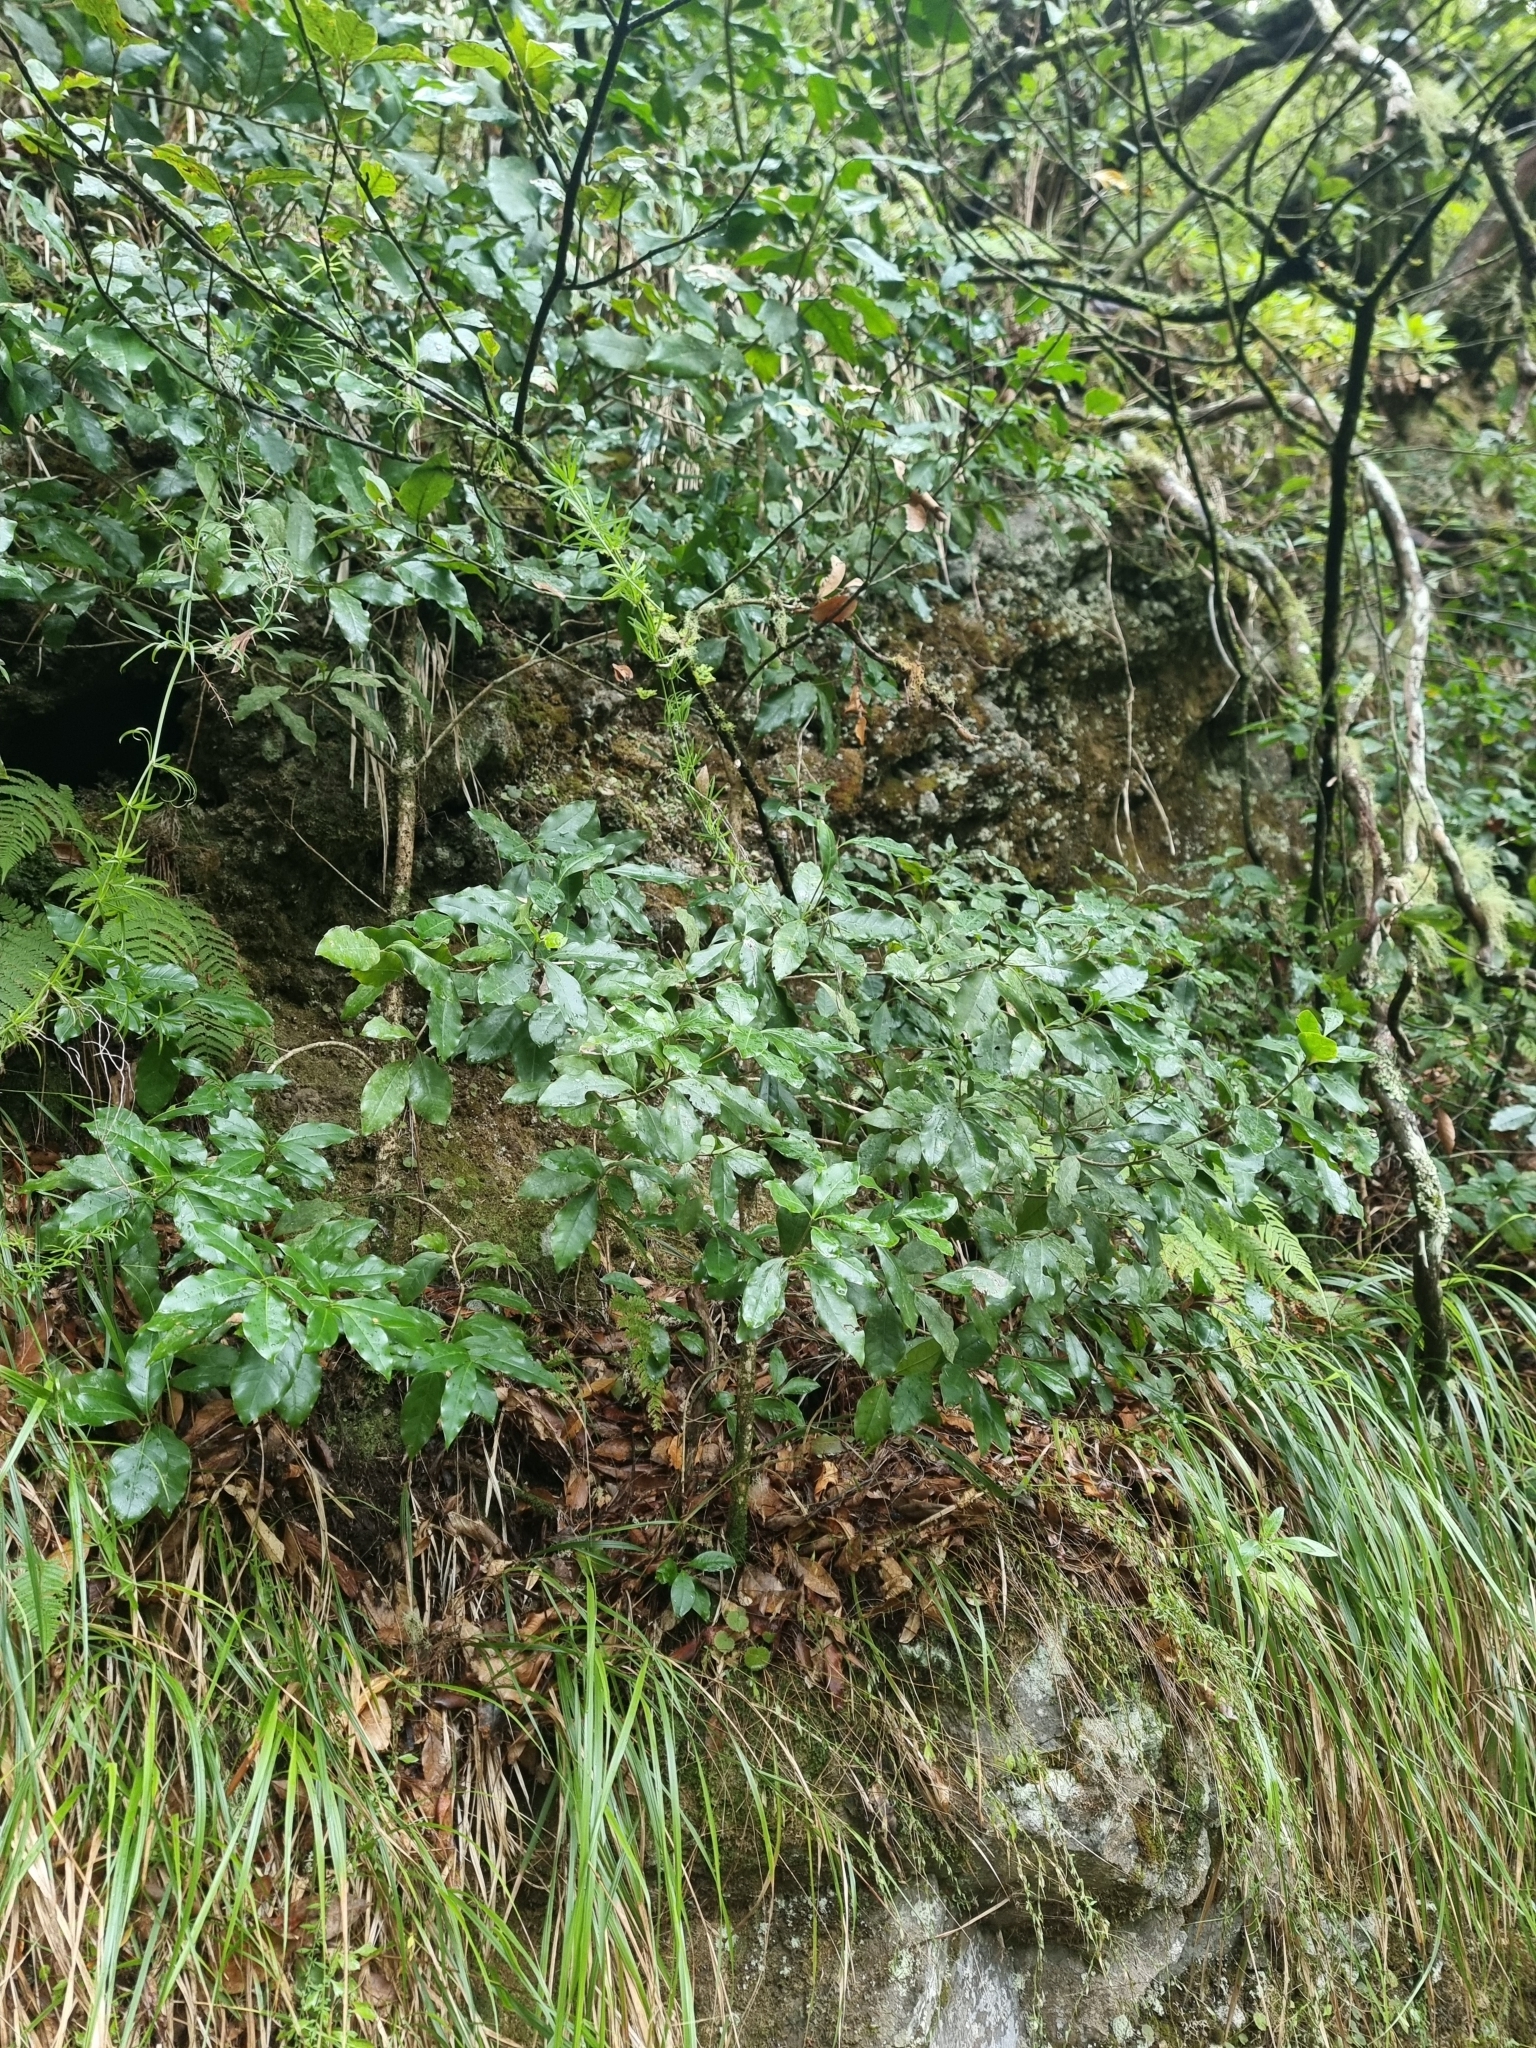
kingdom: Plantae
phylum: Tracheophyta
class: Magnoliopsida
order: Lamiales
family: Oleaceae
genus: Picconia
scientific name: Picconia excelsa
